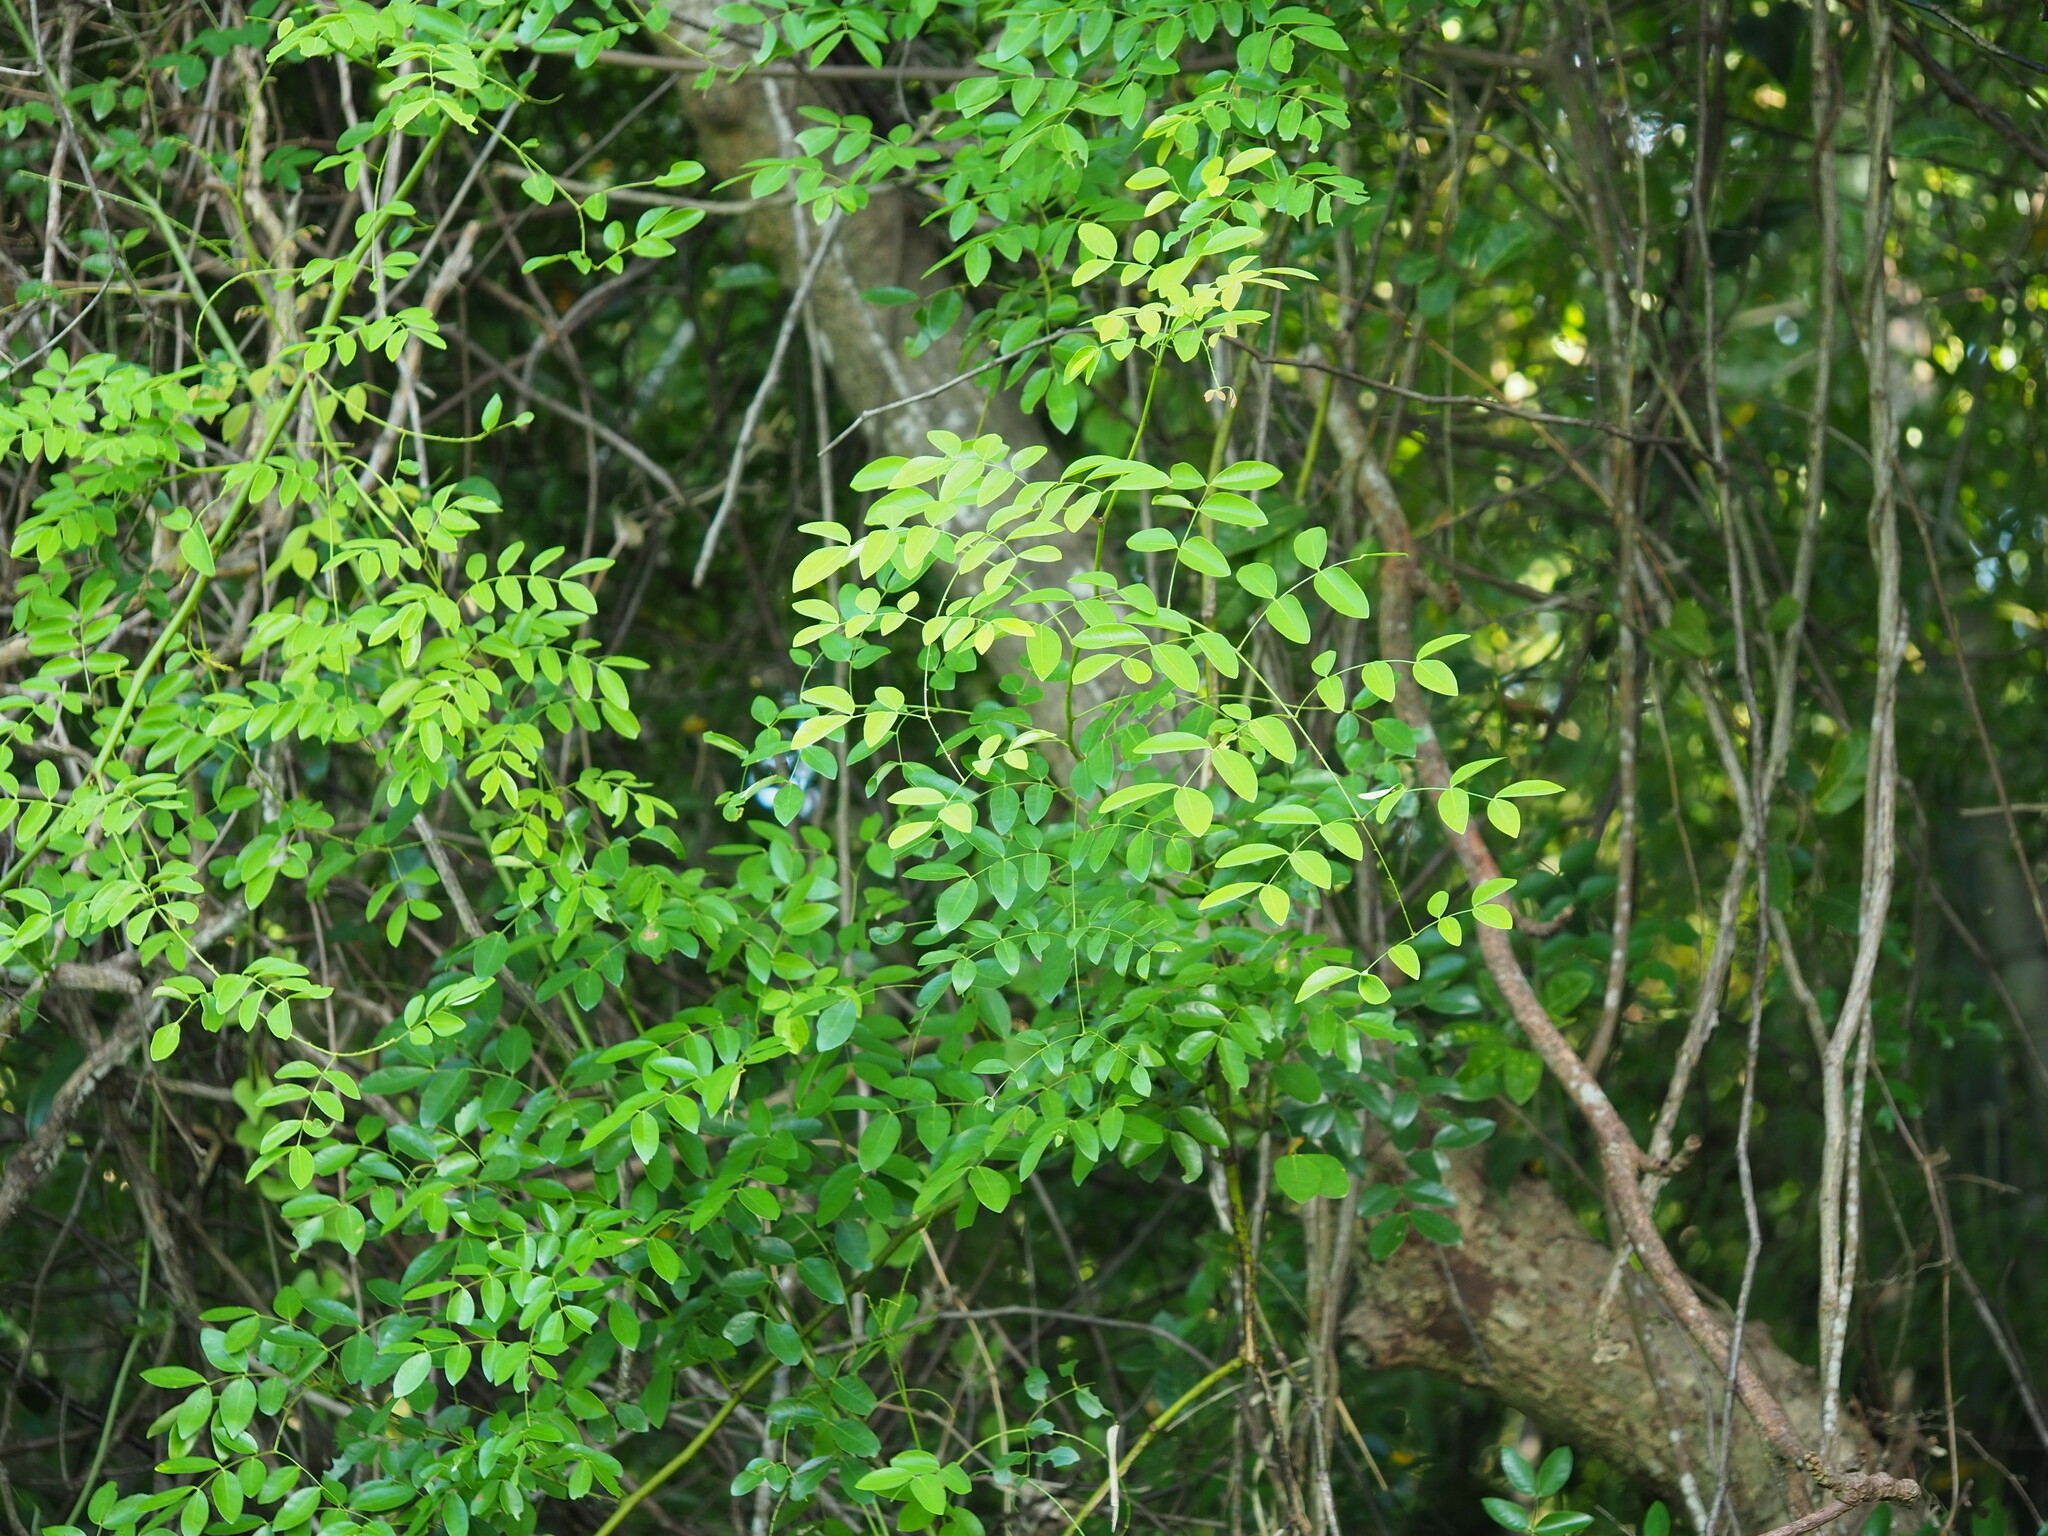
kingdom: Plantae
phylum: Tracheophyta
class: Magnoliopsida
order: Fabales
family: Fabaceae
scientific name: Fabaceae
